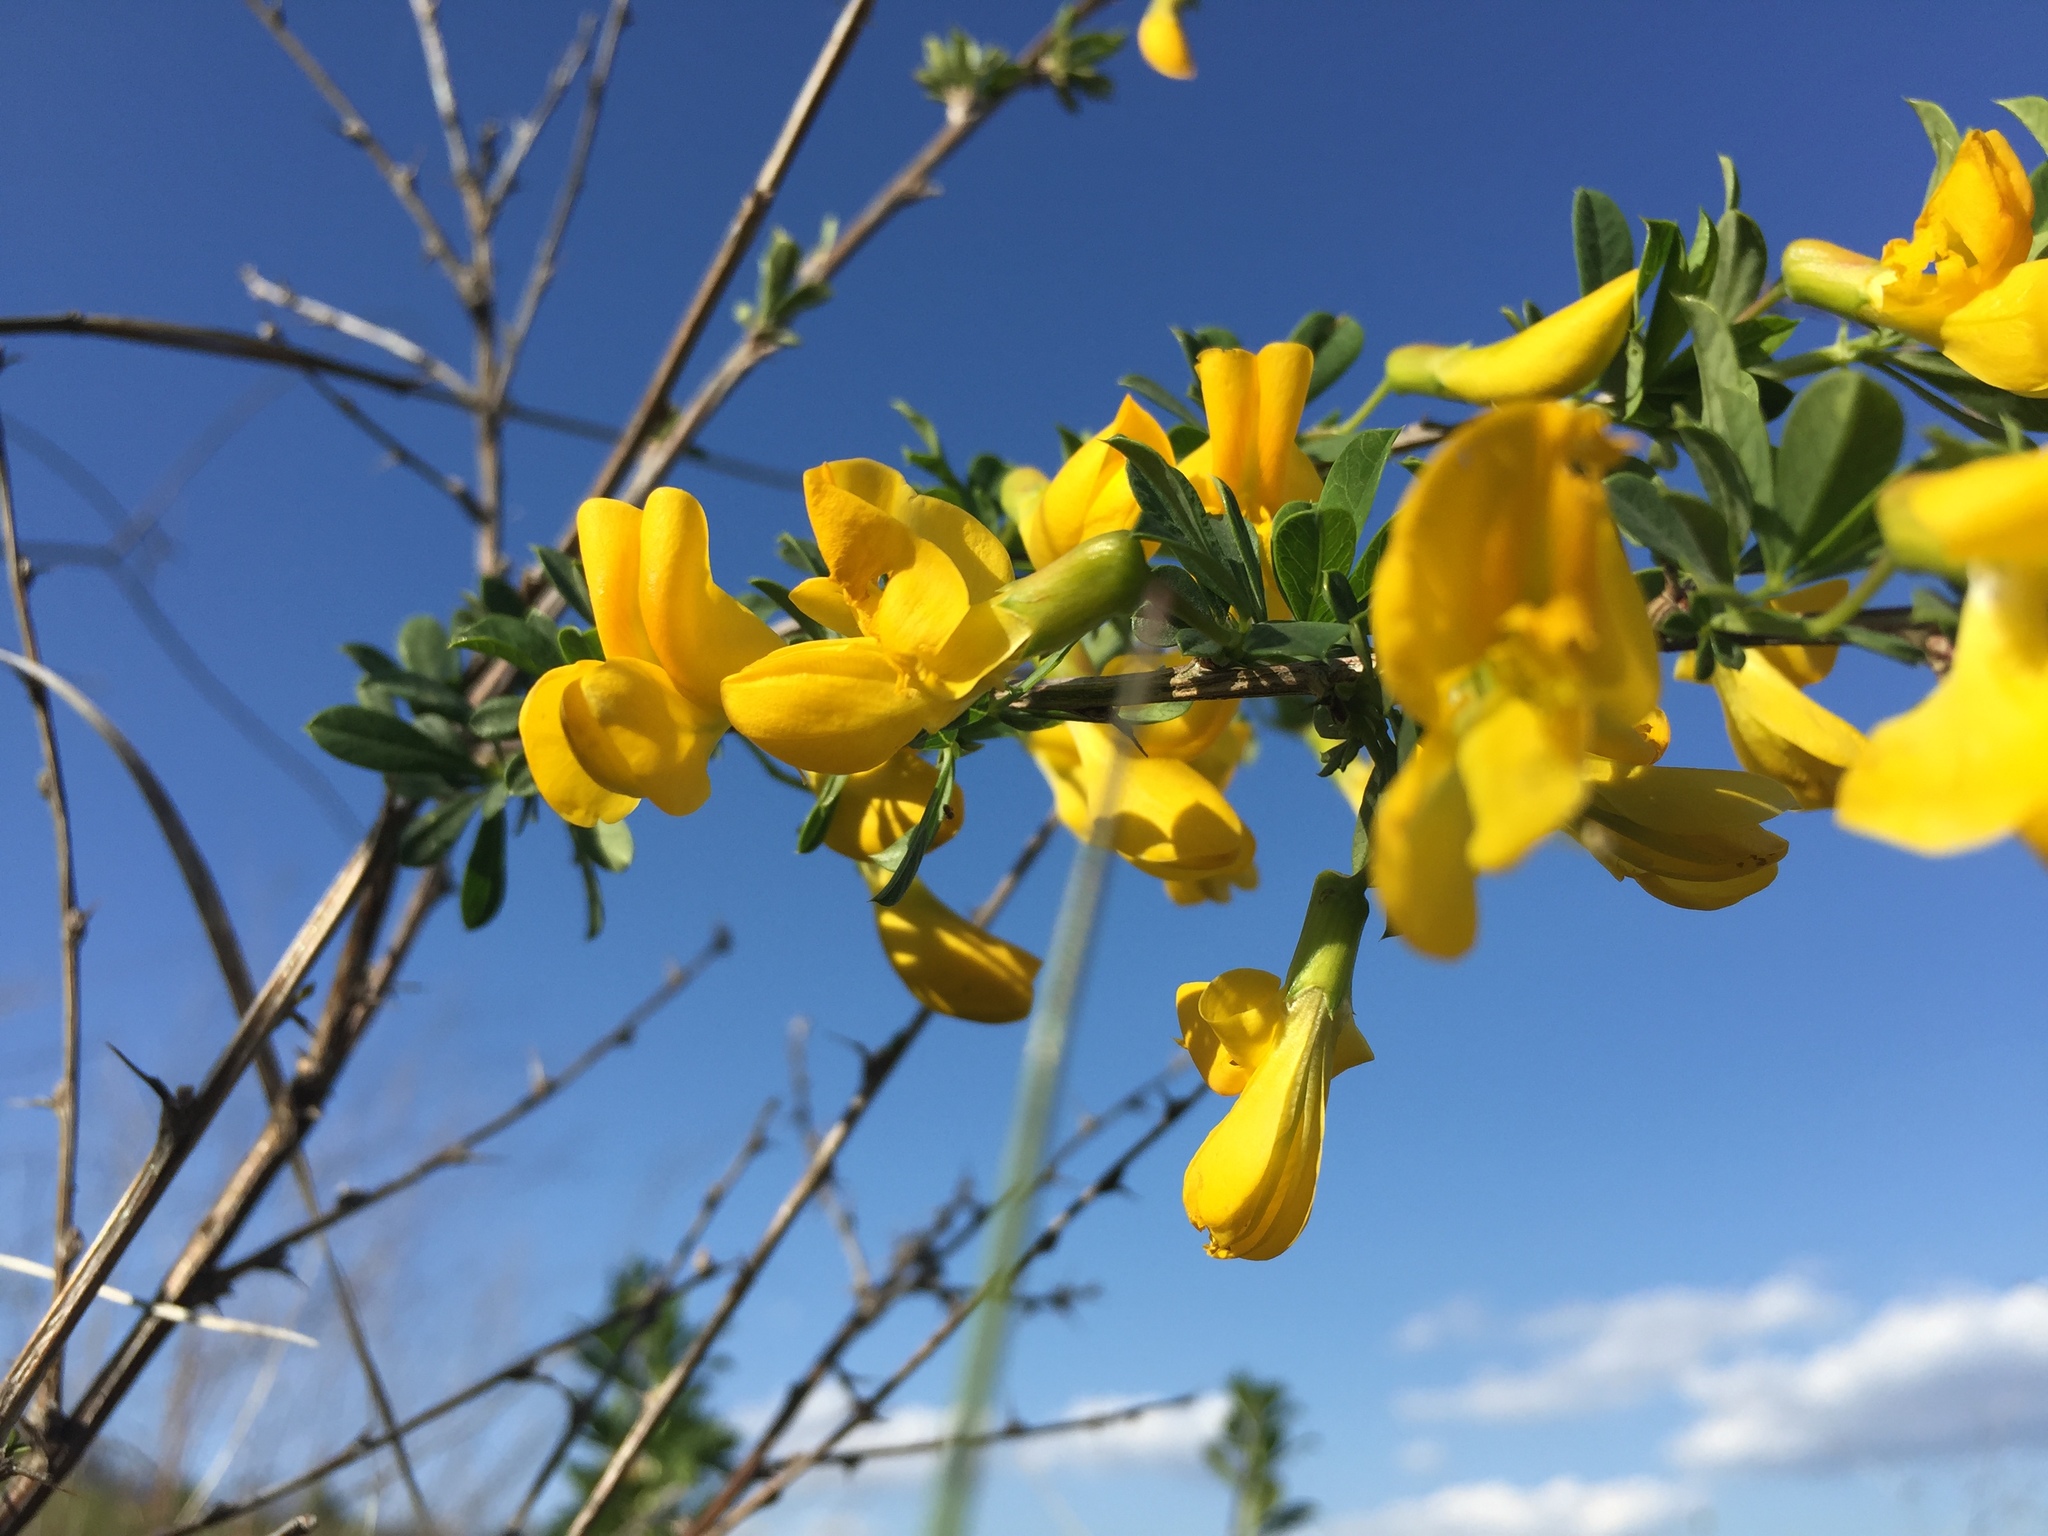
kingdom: Plantae
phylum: Tracheophyta
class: Magnoliopsida
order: Fabales
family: Fabaceae
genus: Caragana
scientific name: Caragana frutex
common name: Russian peashrub
